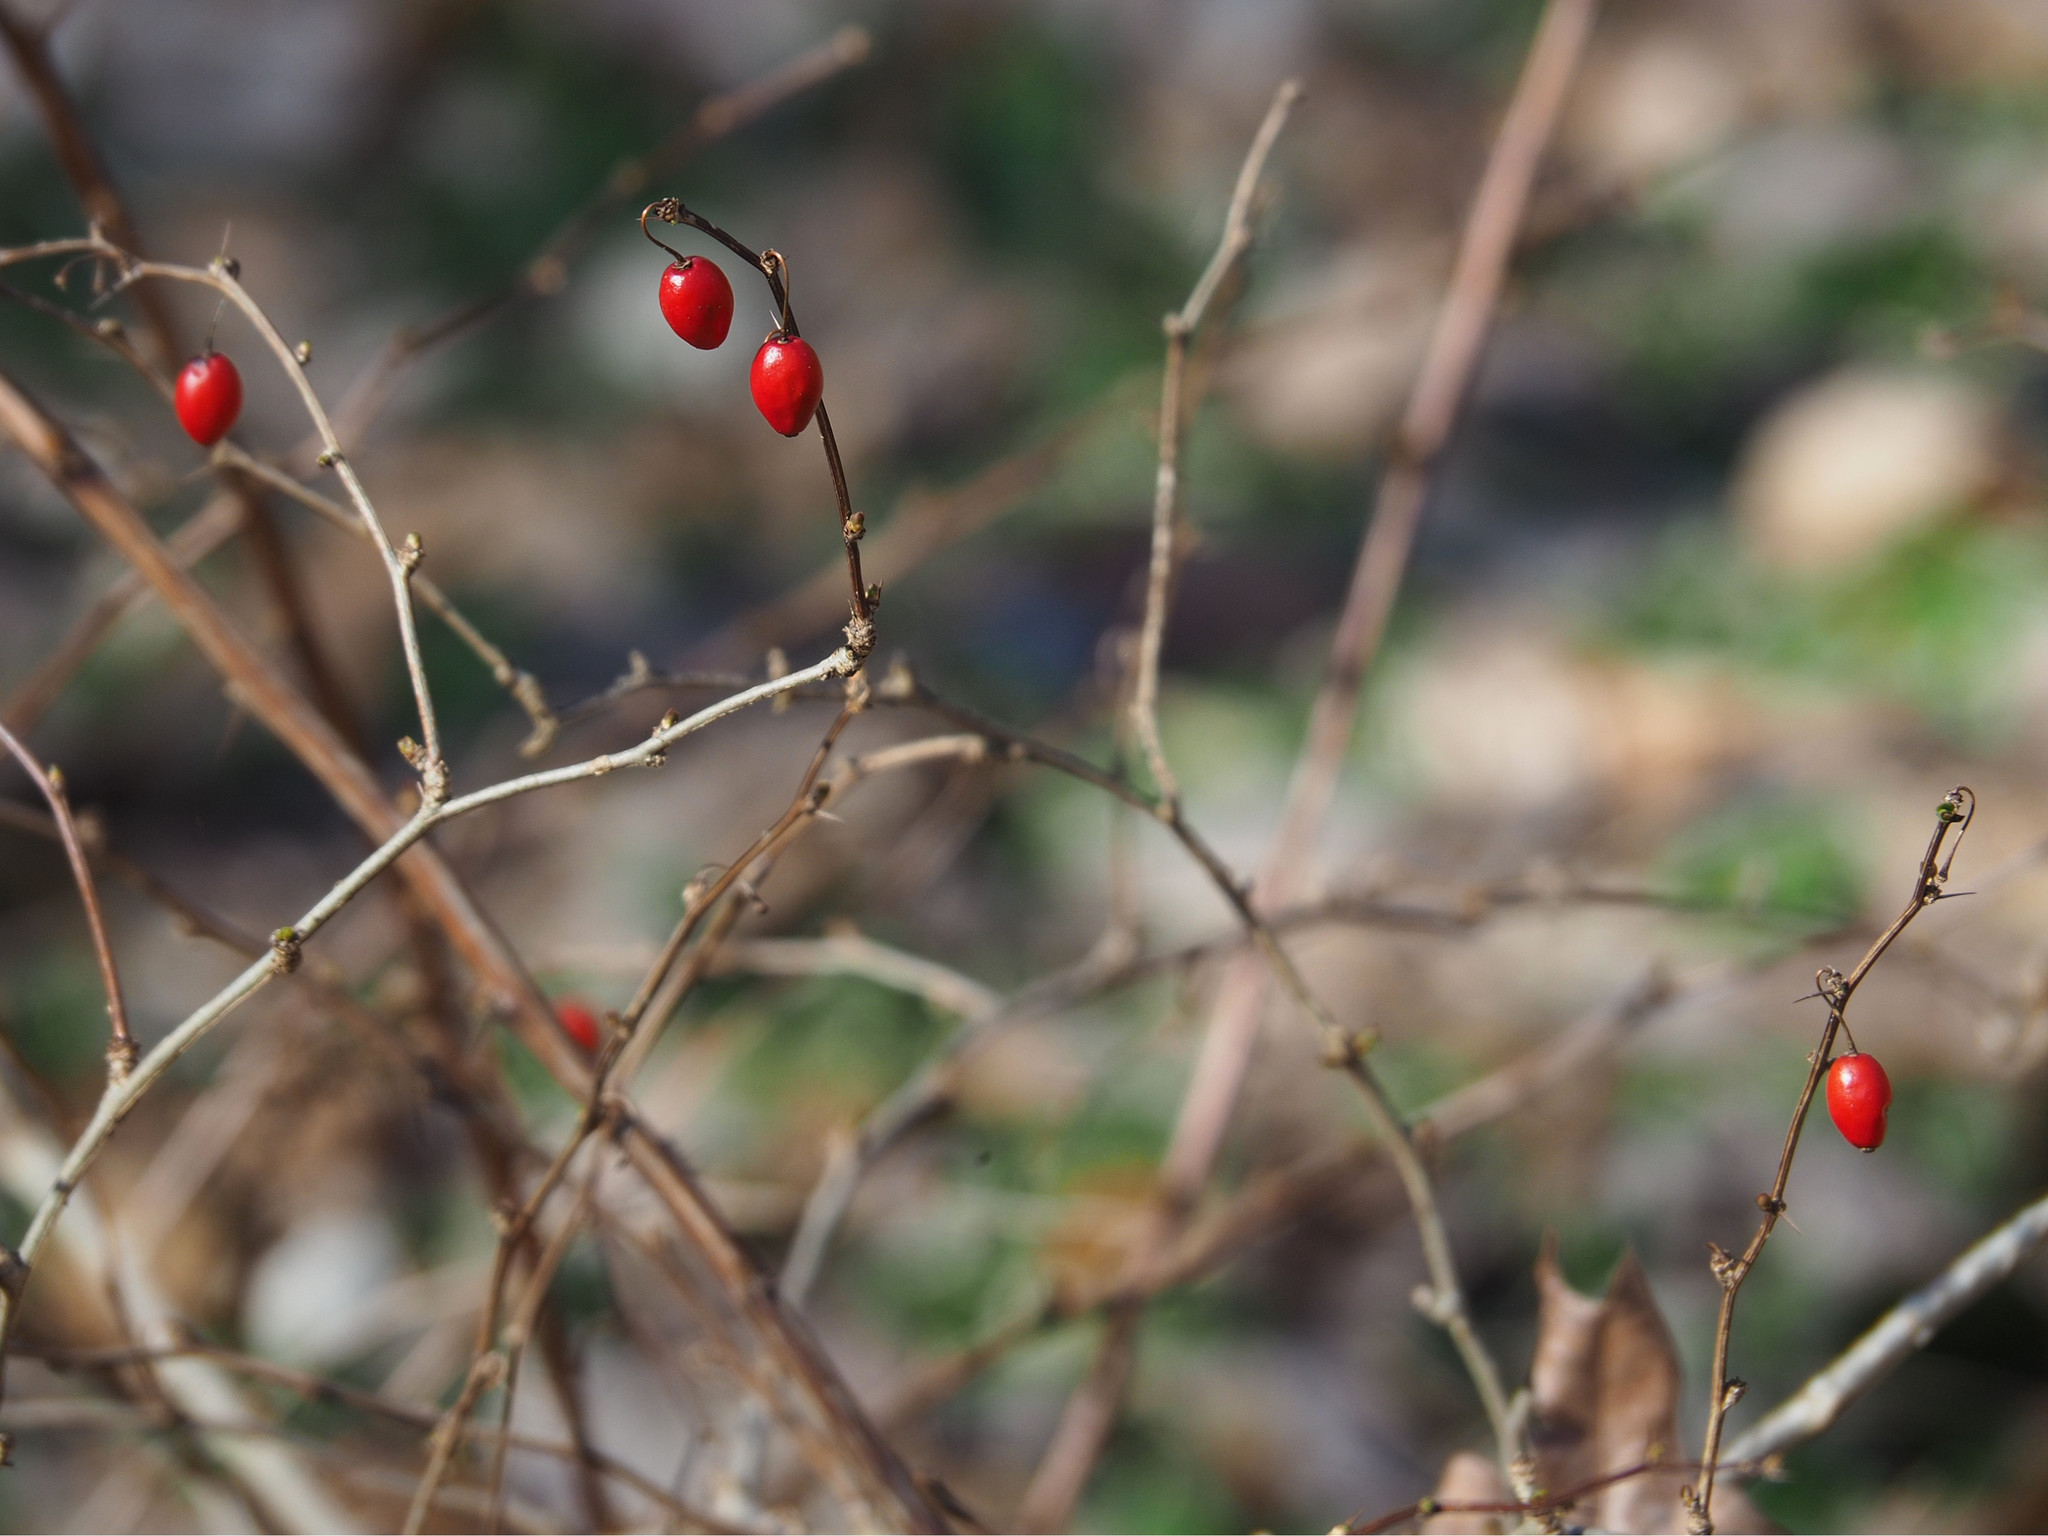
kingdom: Plantae
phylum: Tracheophyta
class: Magnoliopsida
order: Ranunculales
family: Berberidaceae
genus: Berberis
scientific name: Berberis thunbergii
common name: Japanese barberry
